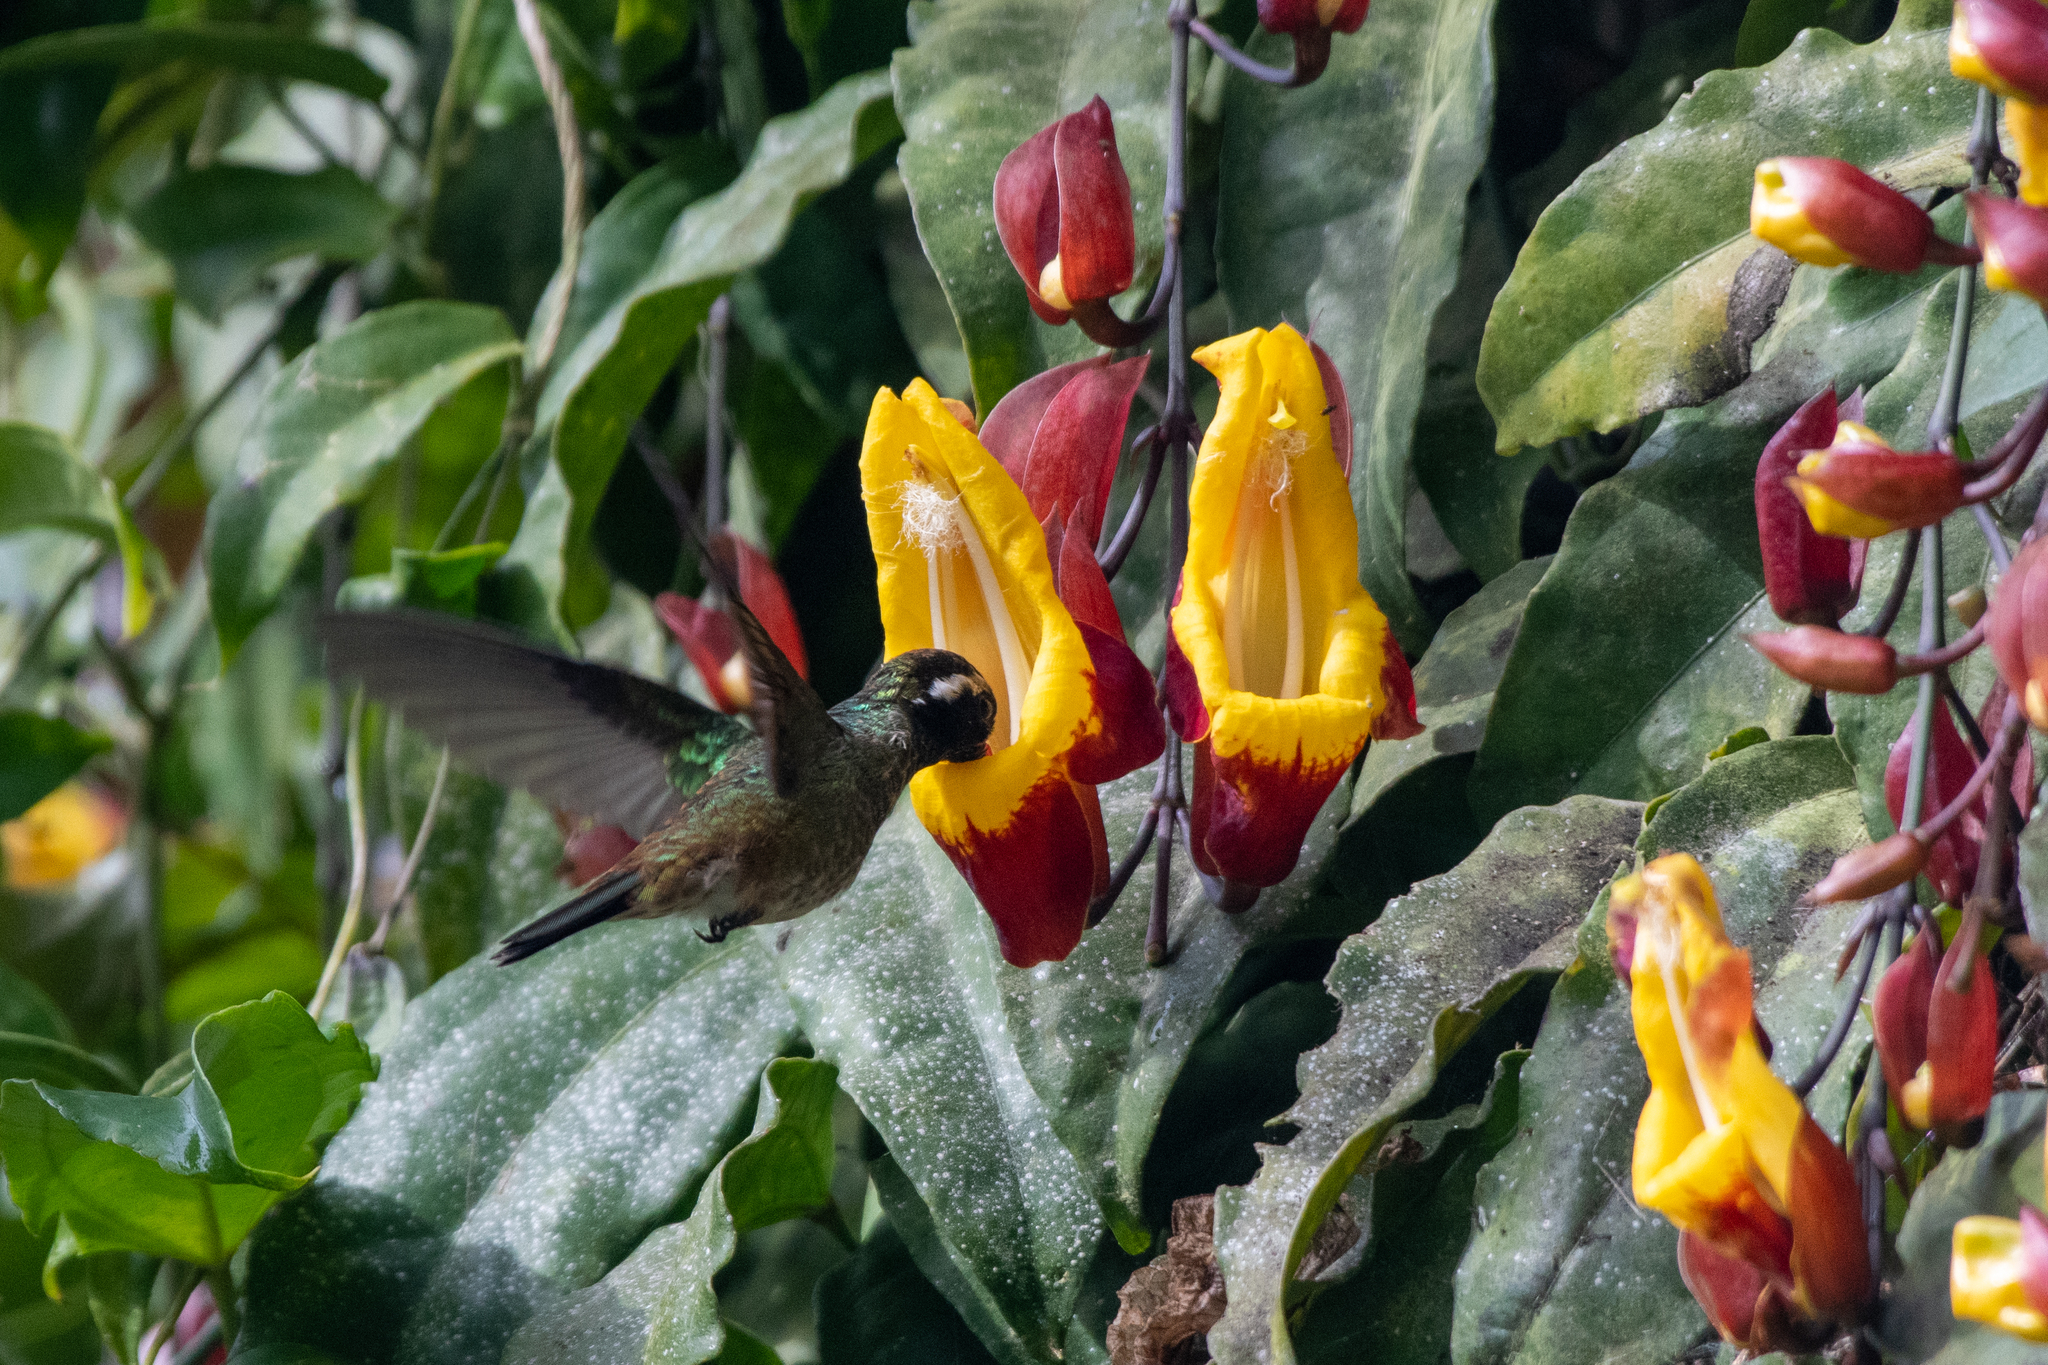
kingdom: Animalia
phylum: Chordata
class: Aves
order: Apodiformes
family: Trochilidae
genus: Basilinna
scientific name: Basilinna leucotis
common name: White-eared hummingbird
